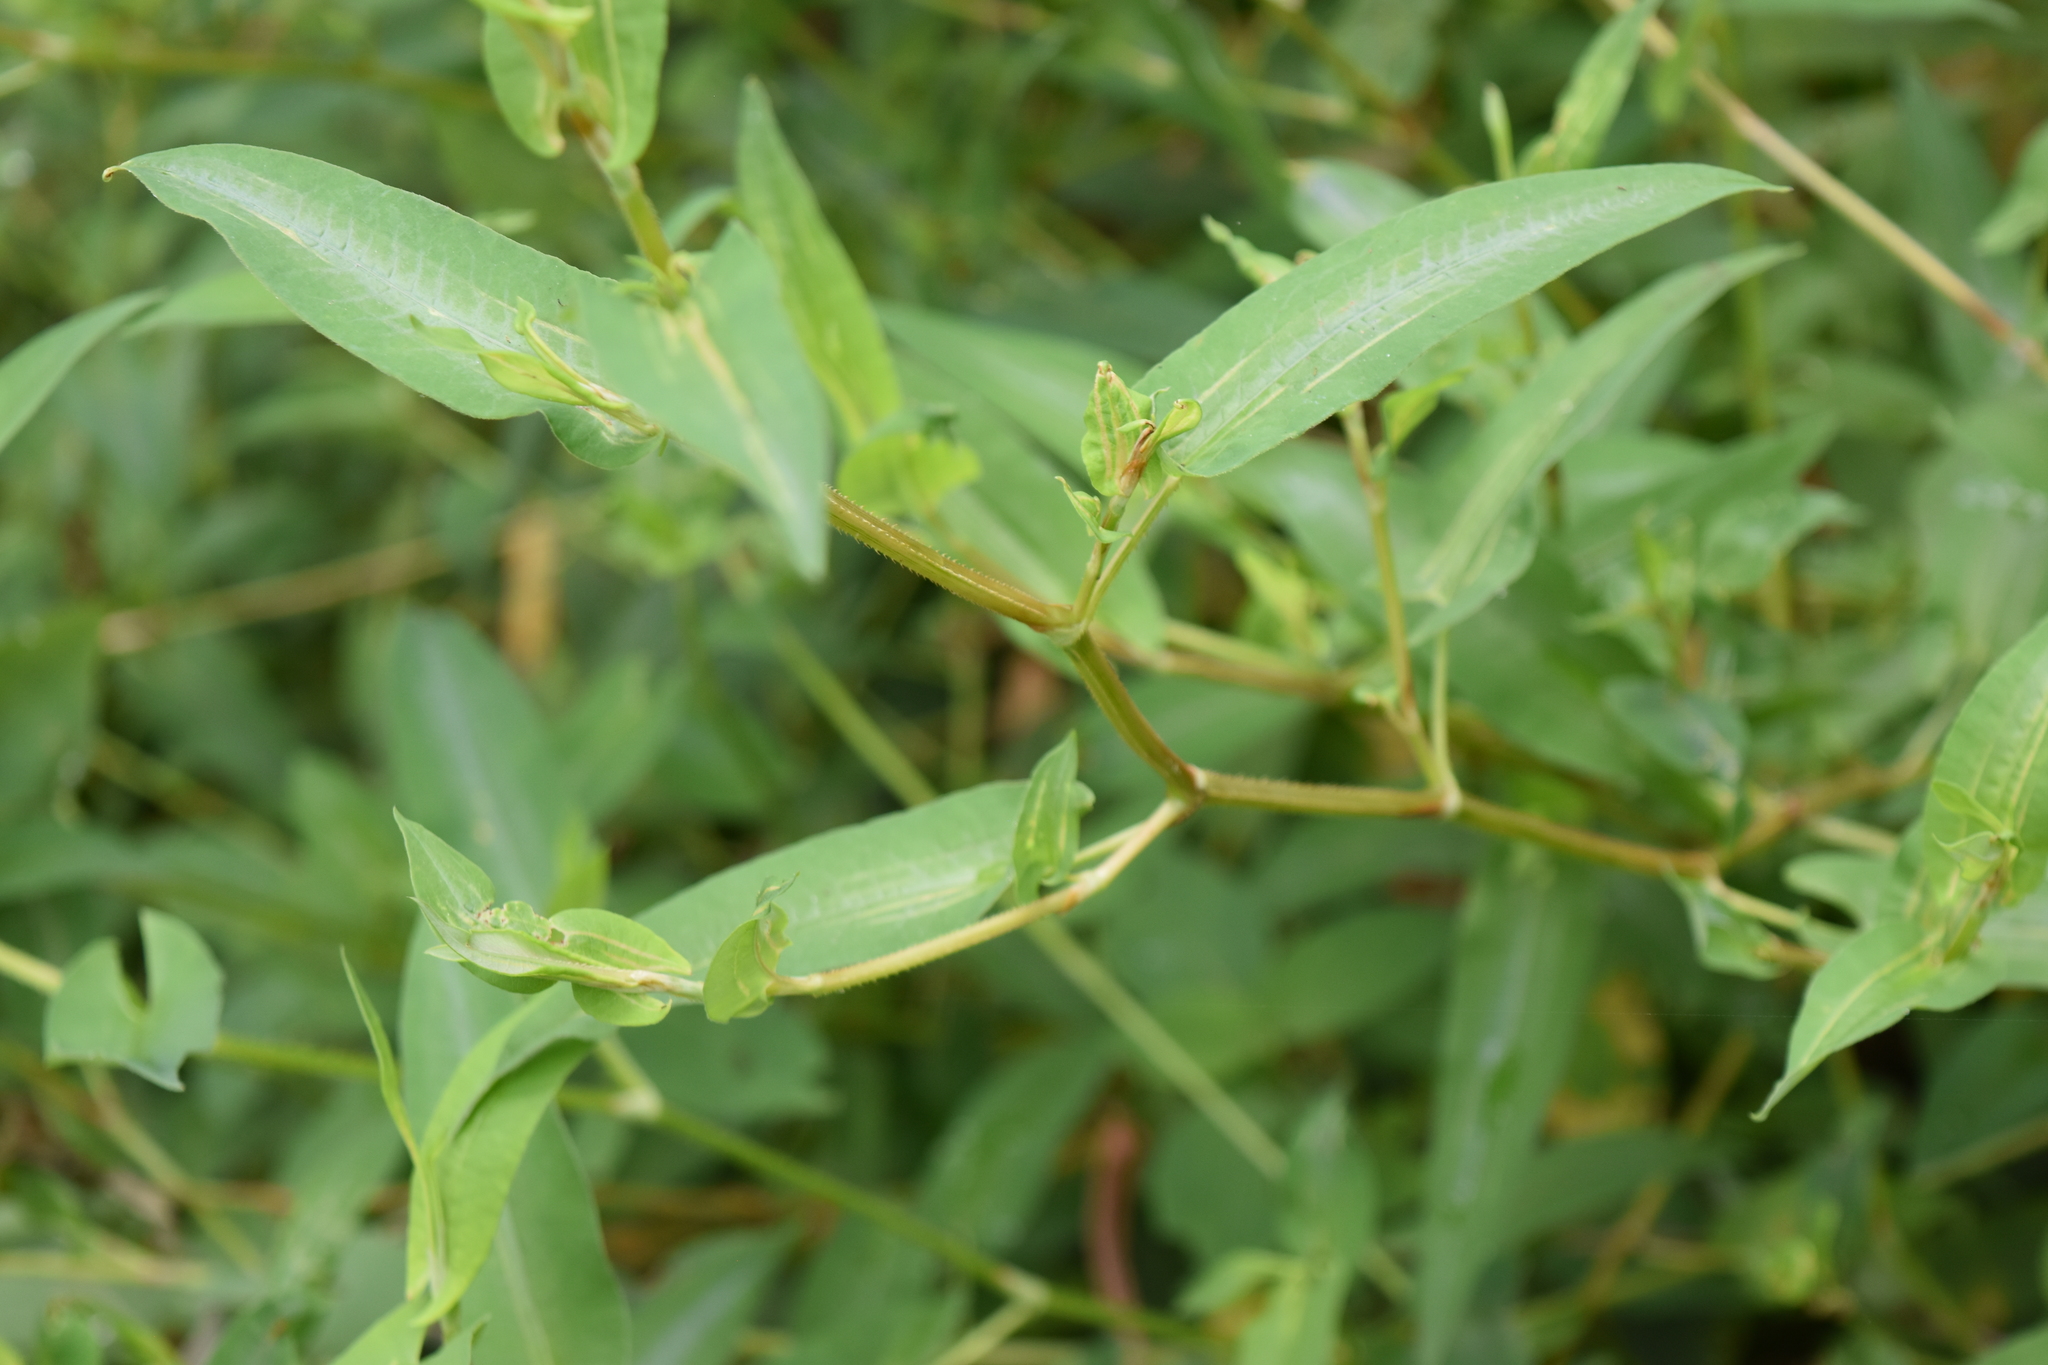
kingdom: Plantae
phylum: Tracheophyta
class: Magnoliopsida
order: Caryophyllales
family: Polygonaceae
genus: Persicaria
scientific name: Persicaria sagittata
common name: American tearthumb
